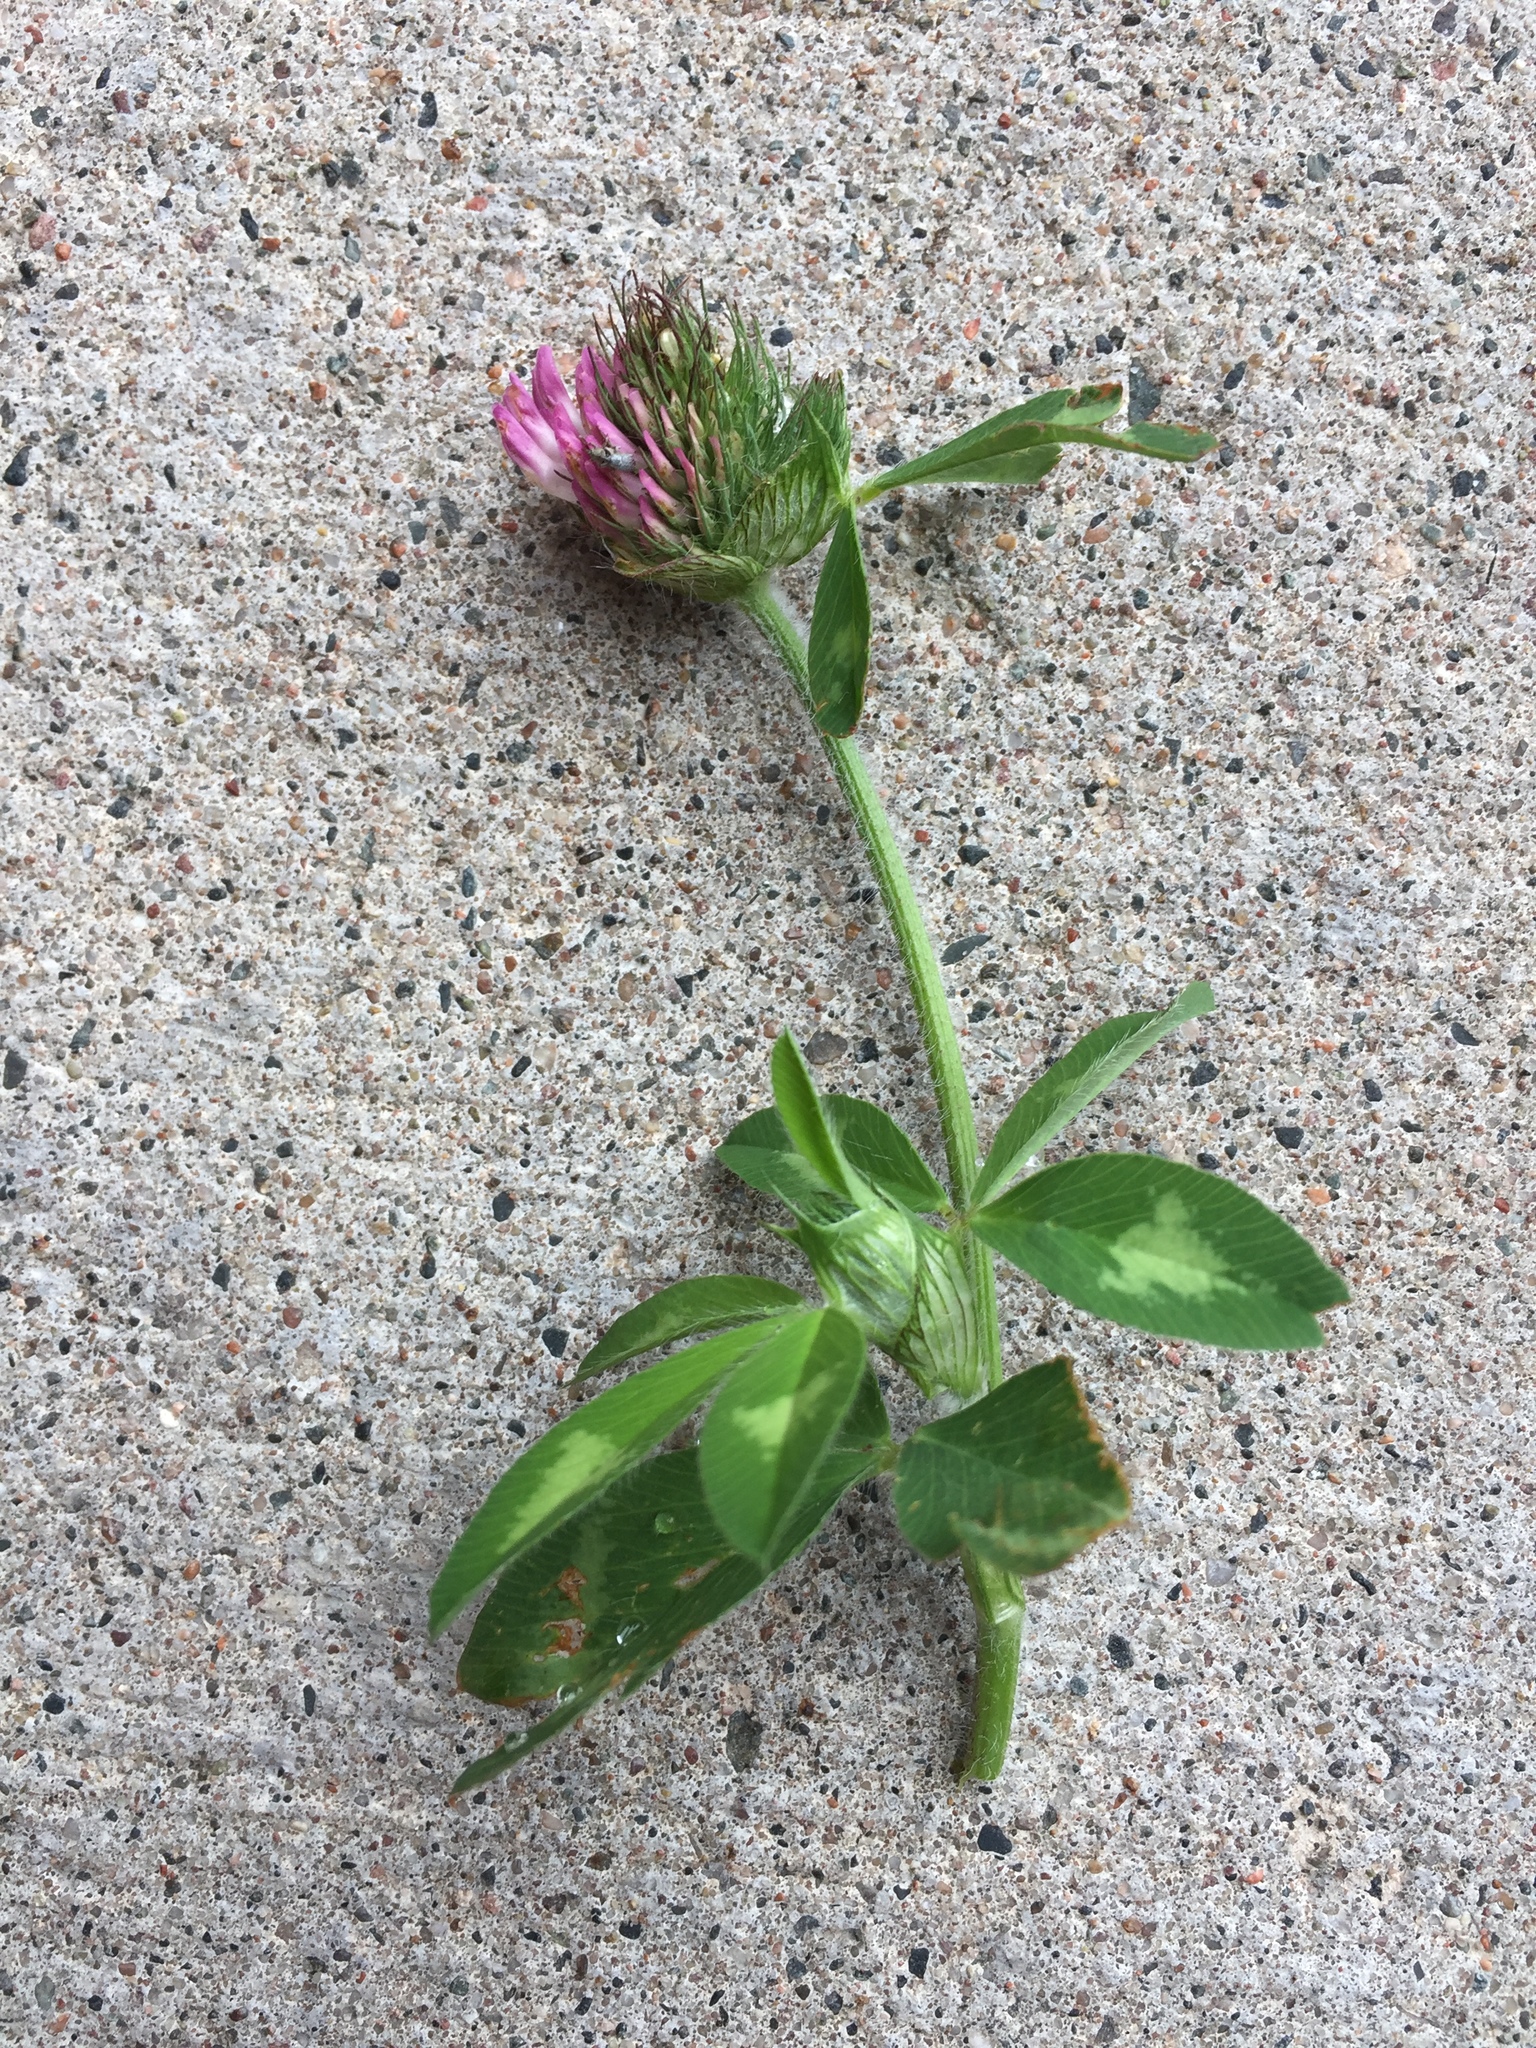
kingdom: Plantae
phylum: Tracheophyta
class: Magnoliopsida
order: Fabales
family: Fabaceae
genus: Trifolium
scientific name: Trifolium pratense
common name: Red clover
